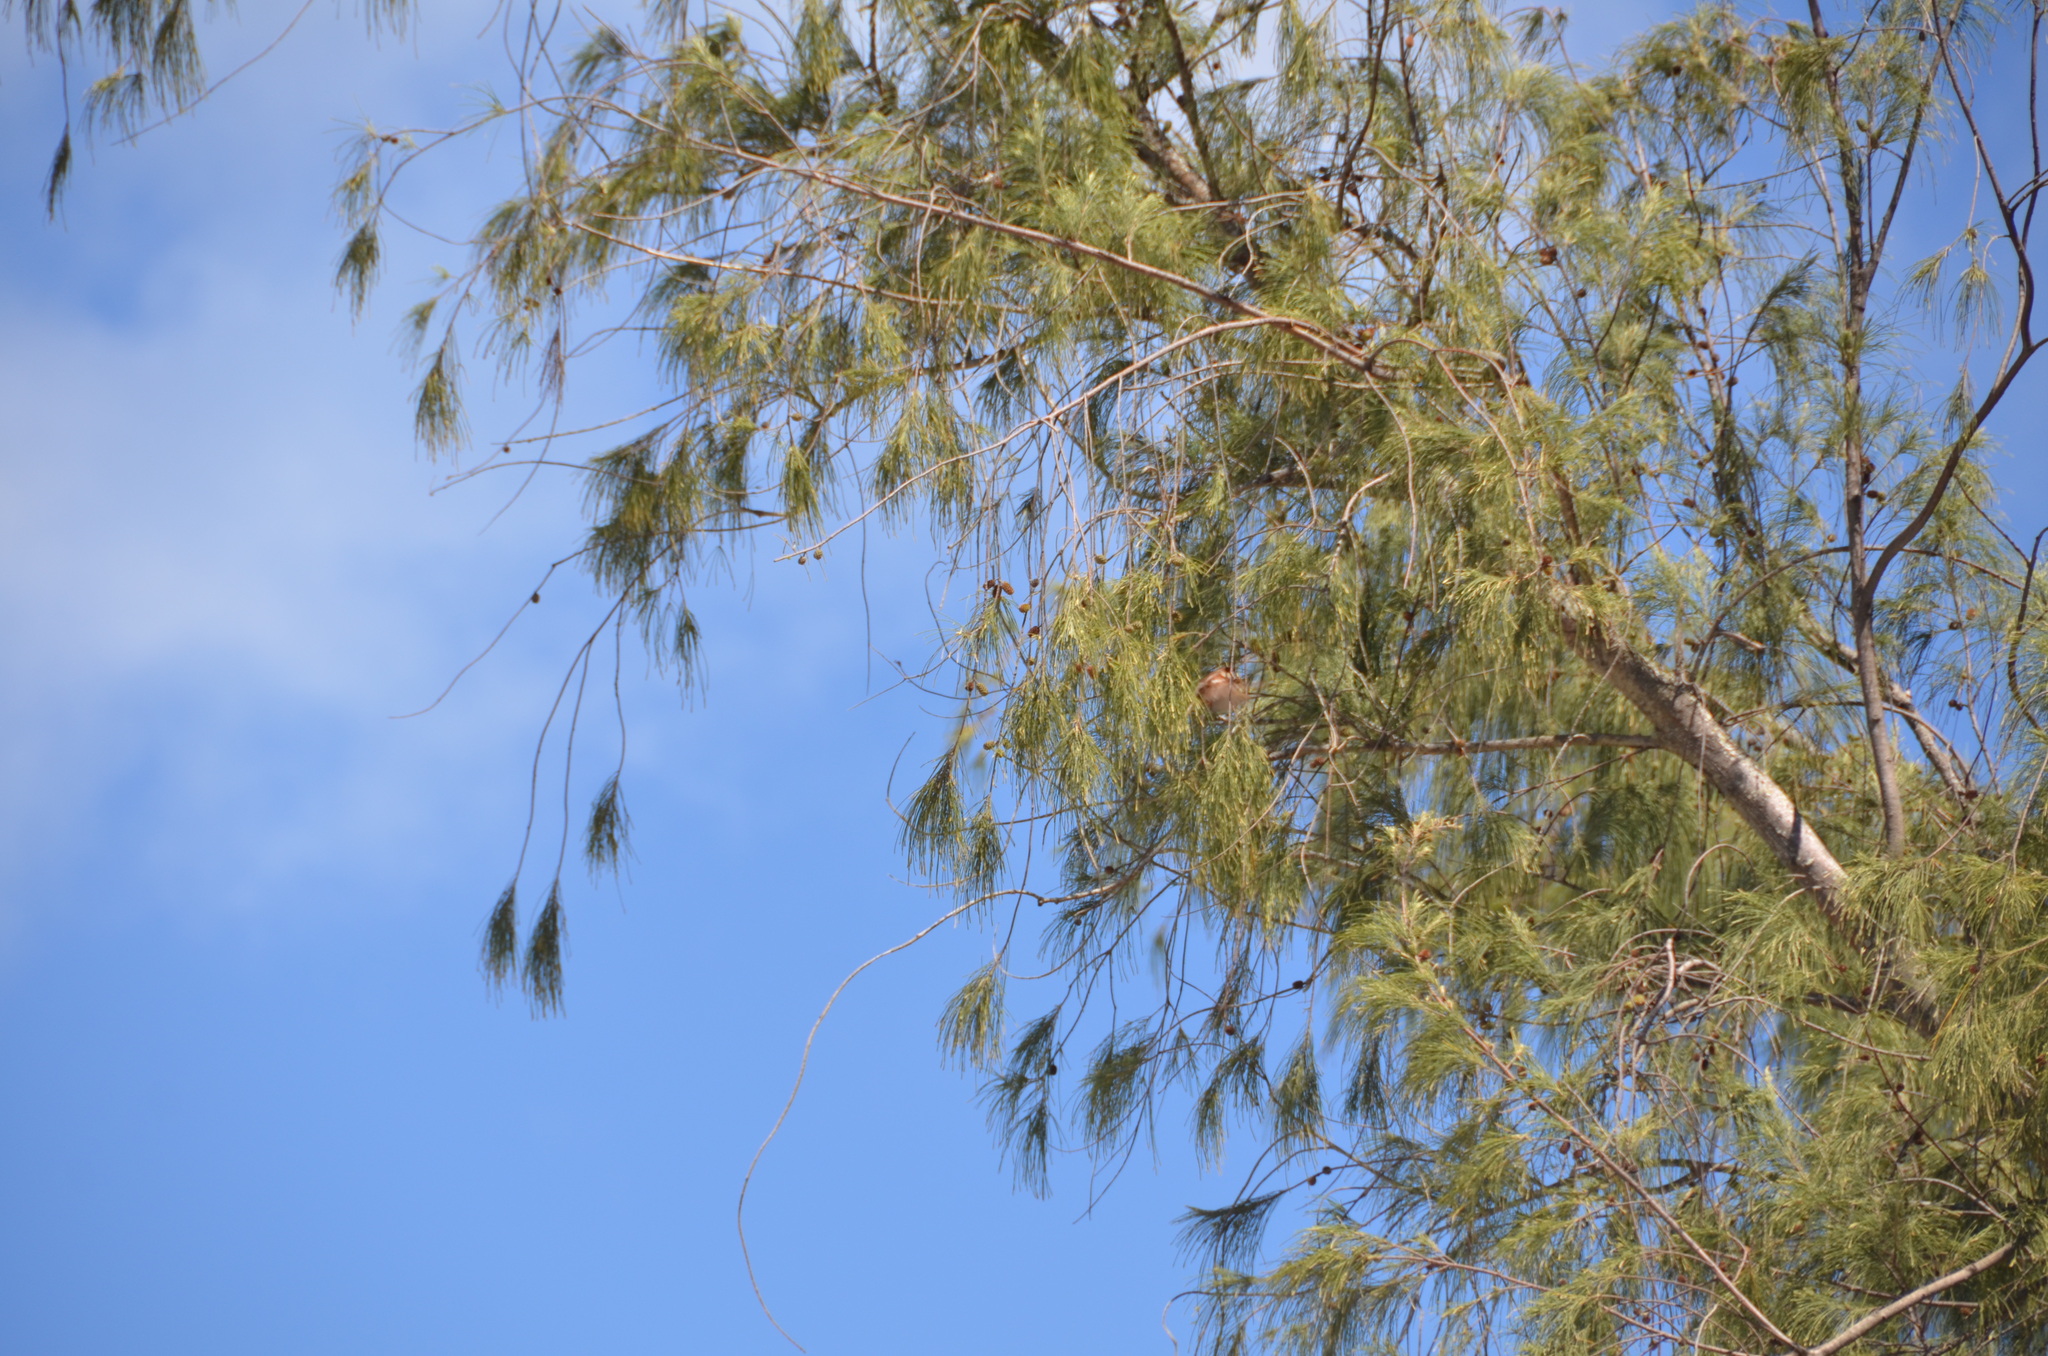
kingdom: Animalia
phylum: Chordata
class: Aves
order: Passeriformes
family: Passeridae
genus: Passer
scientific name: Passer domesticus
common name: House sparrow
